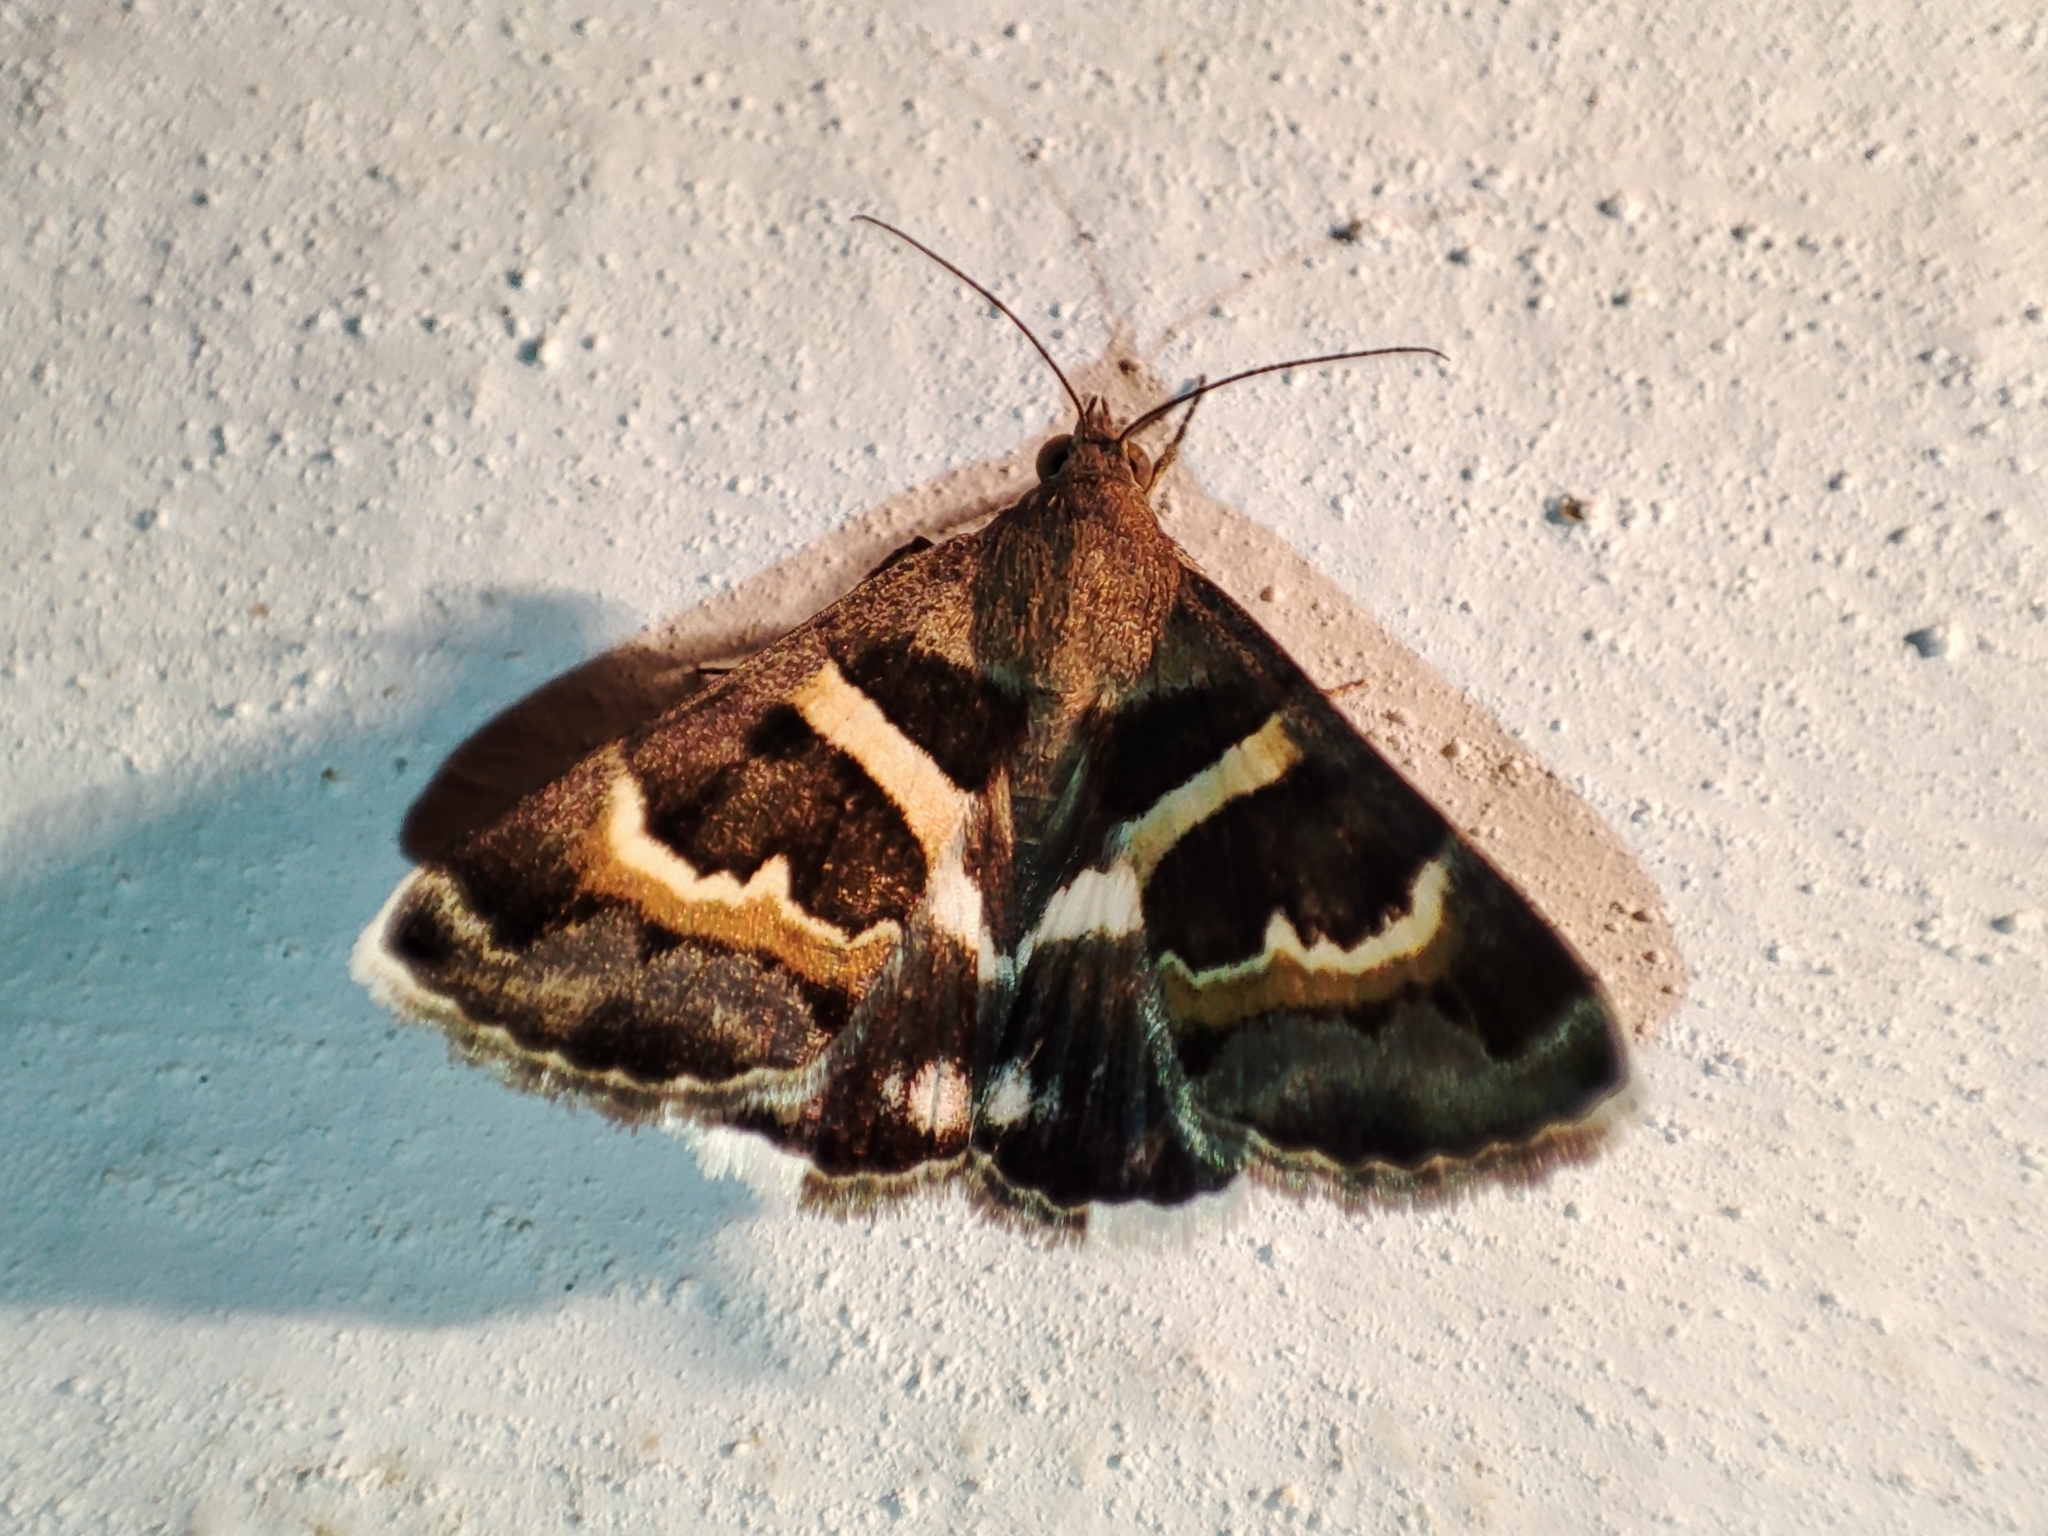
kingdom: Animalia
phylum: Arthropoda
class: Insecta
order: Lepidoptera
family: Erebidae
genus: Grammodes
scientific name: Grammodes stolida
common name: Geometrician
